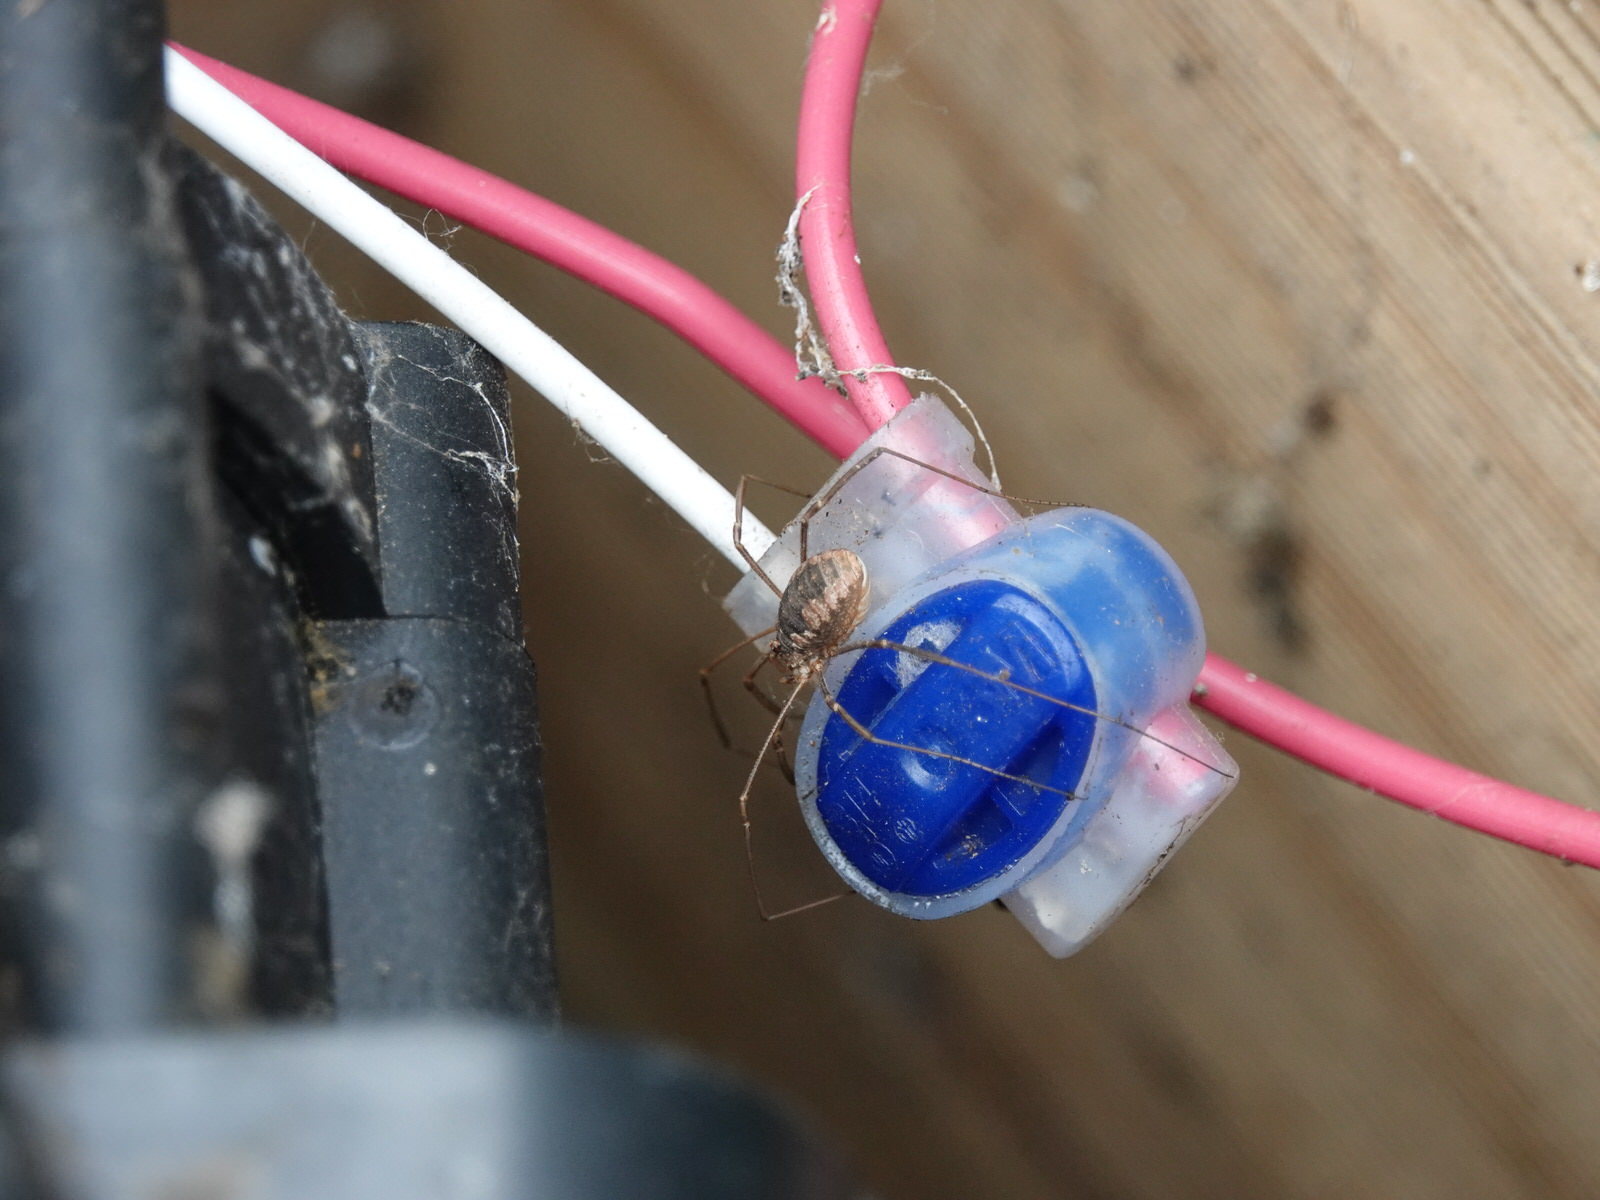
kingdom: Animalia
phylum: Arthropoda
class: Arachnida
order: Opiliones
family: Phalangiidae
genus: Phalangium
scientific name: Phalangium opilio
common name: Daddy longleg
